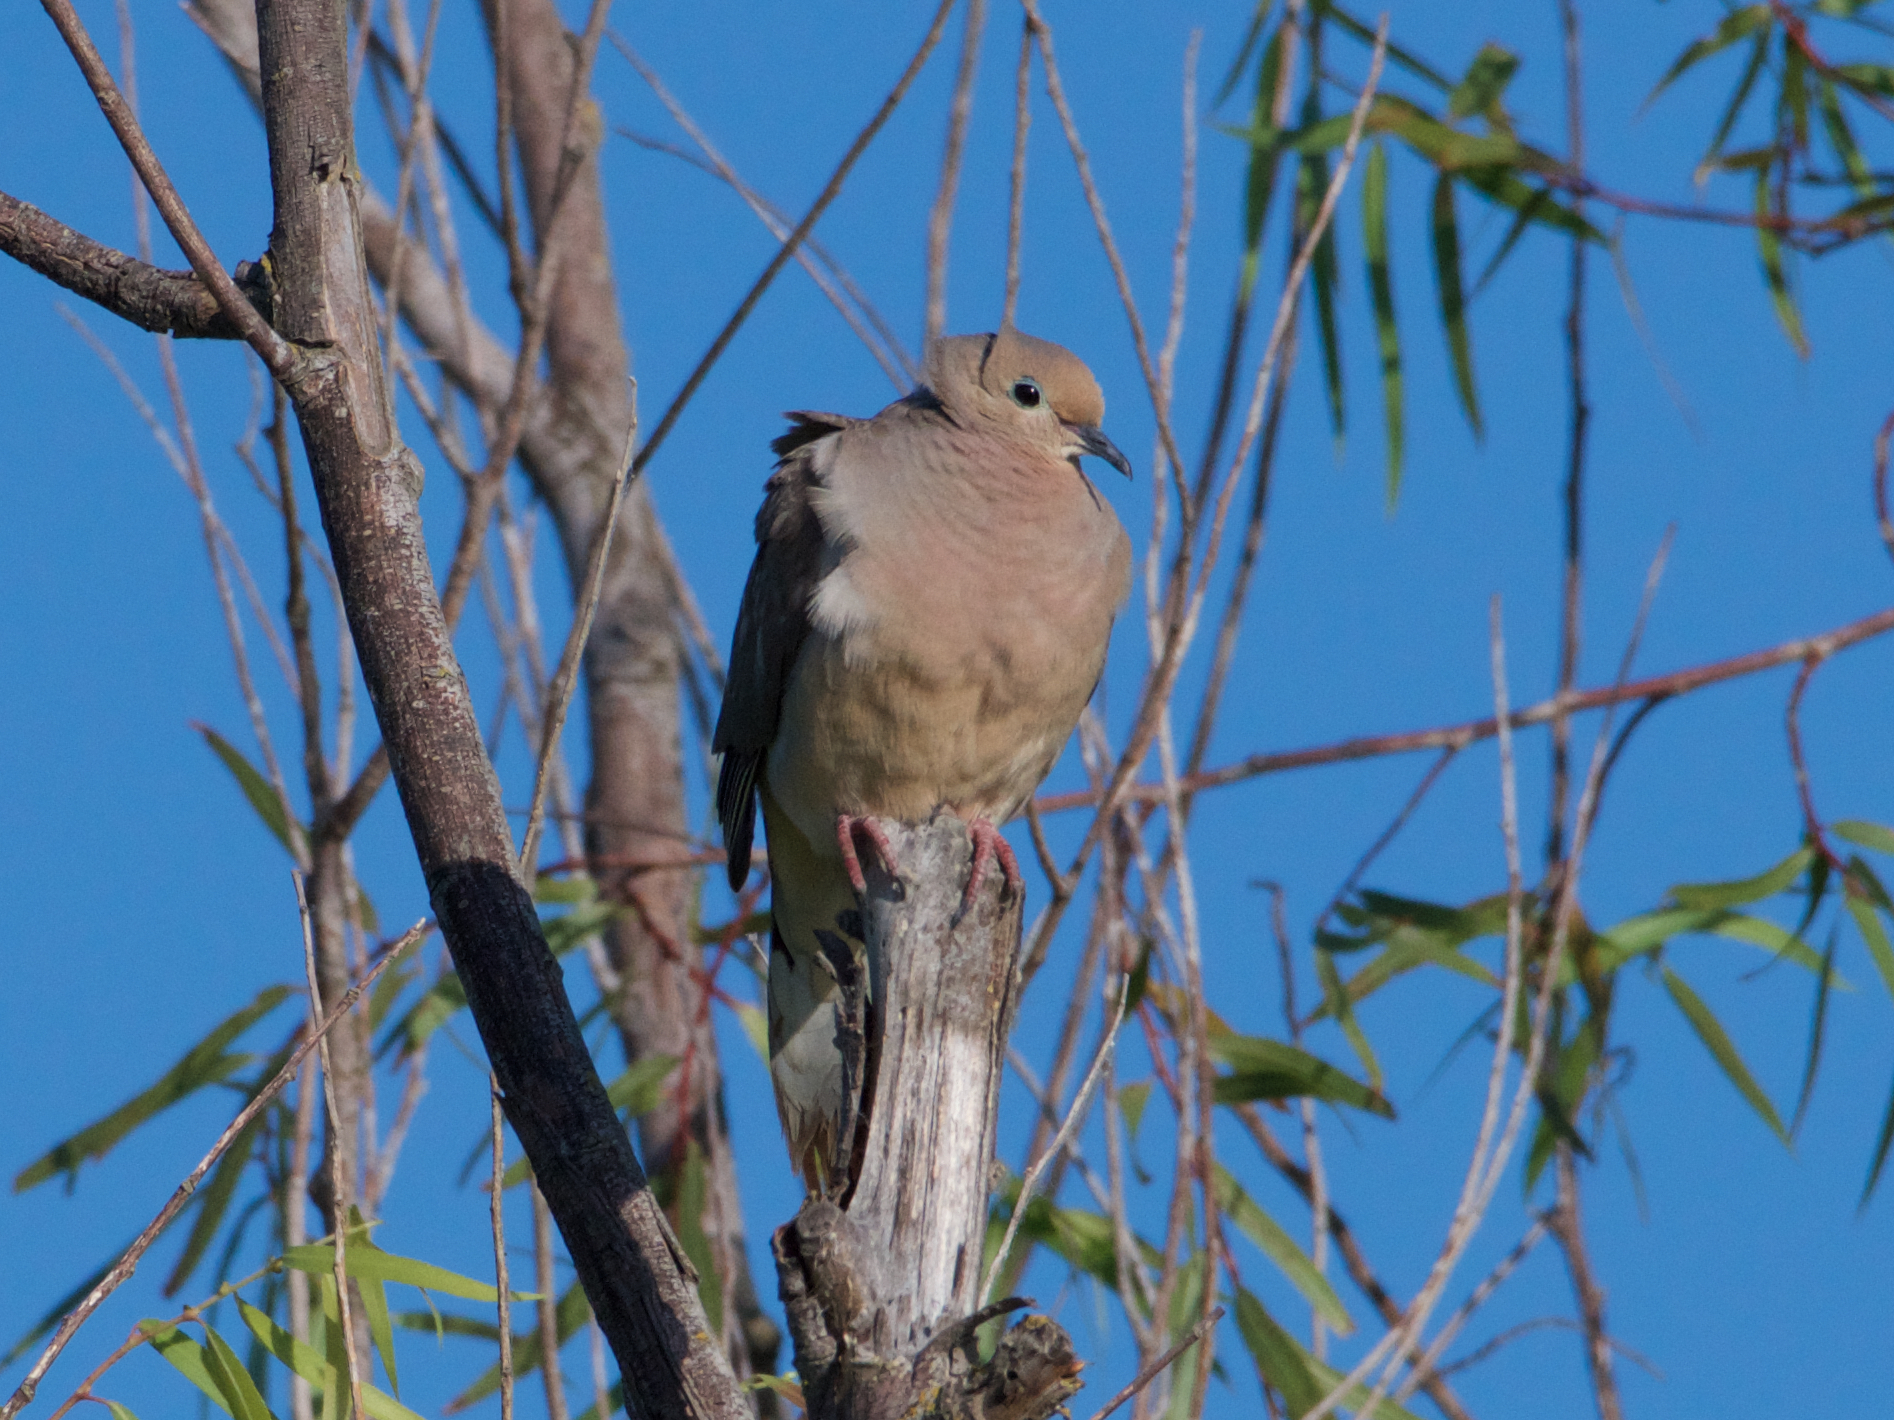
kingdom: Animalia
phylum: Chordata
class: Aves
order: Columbiformes
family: Columbidae
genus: Zenaida
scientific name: Zenaida macroura
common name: Mourning dove
